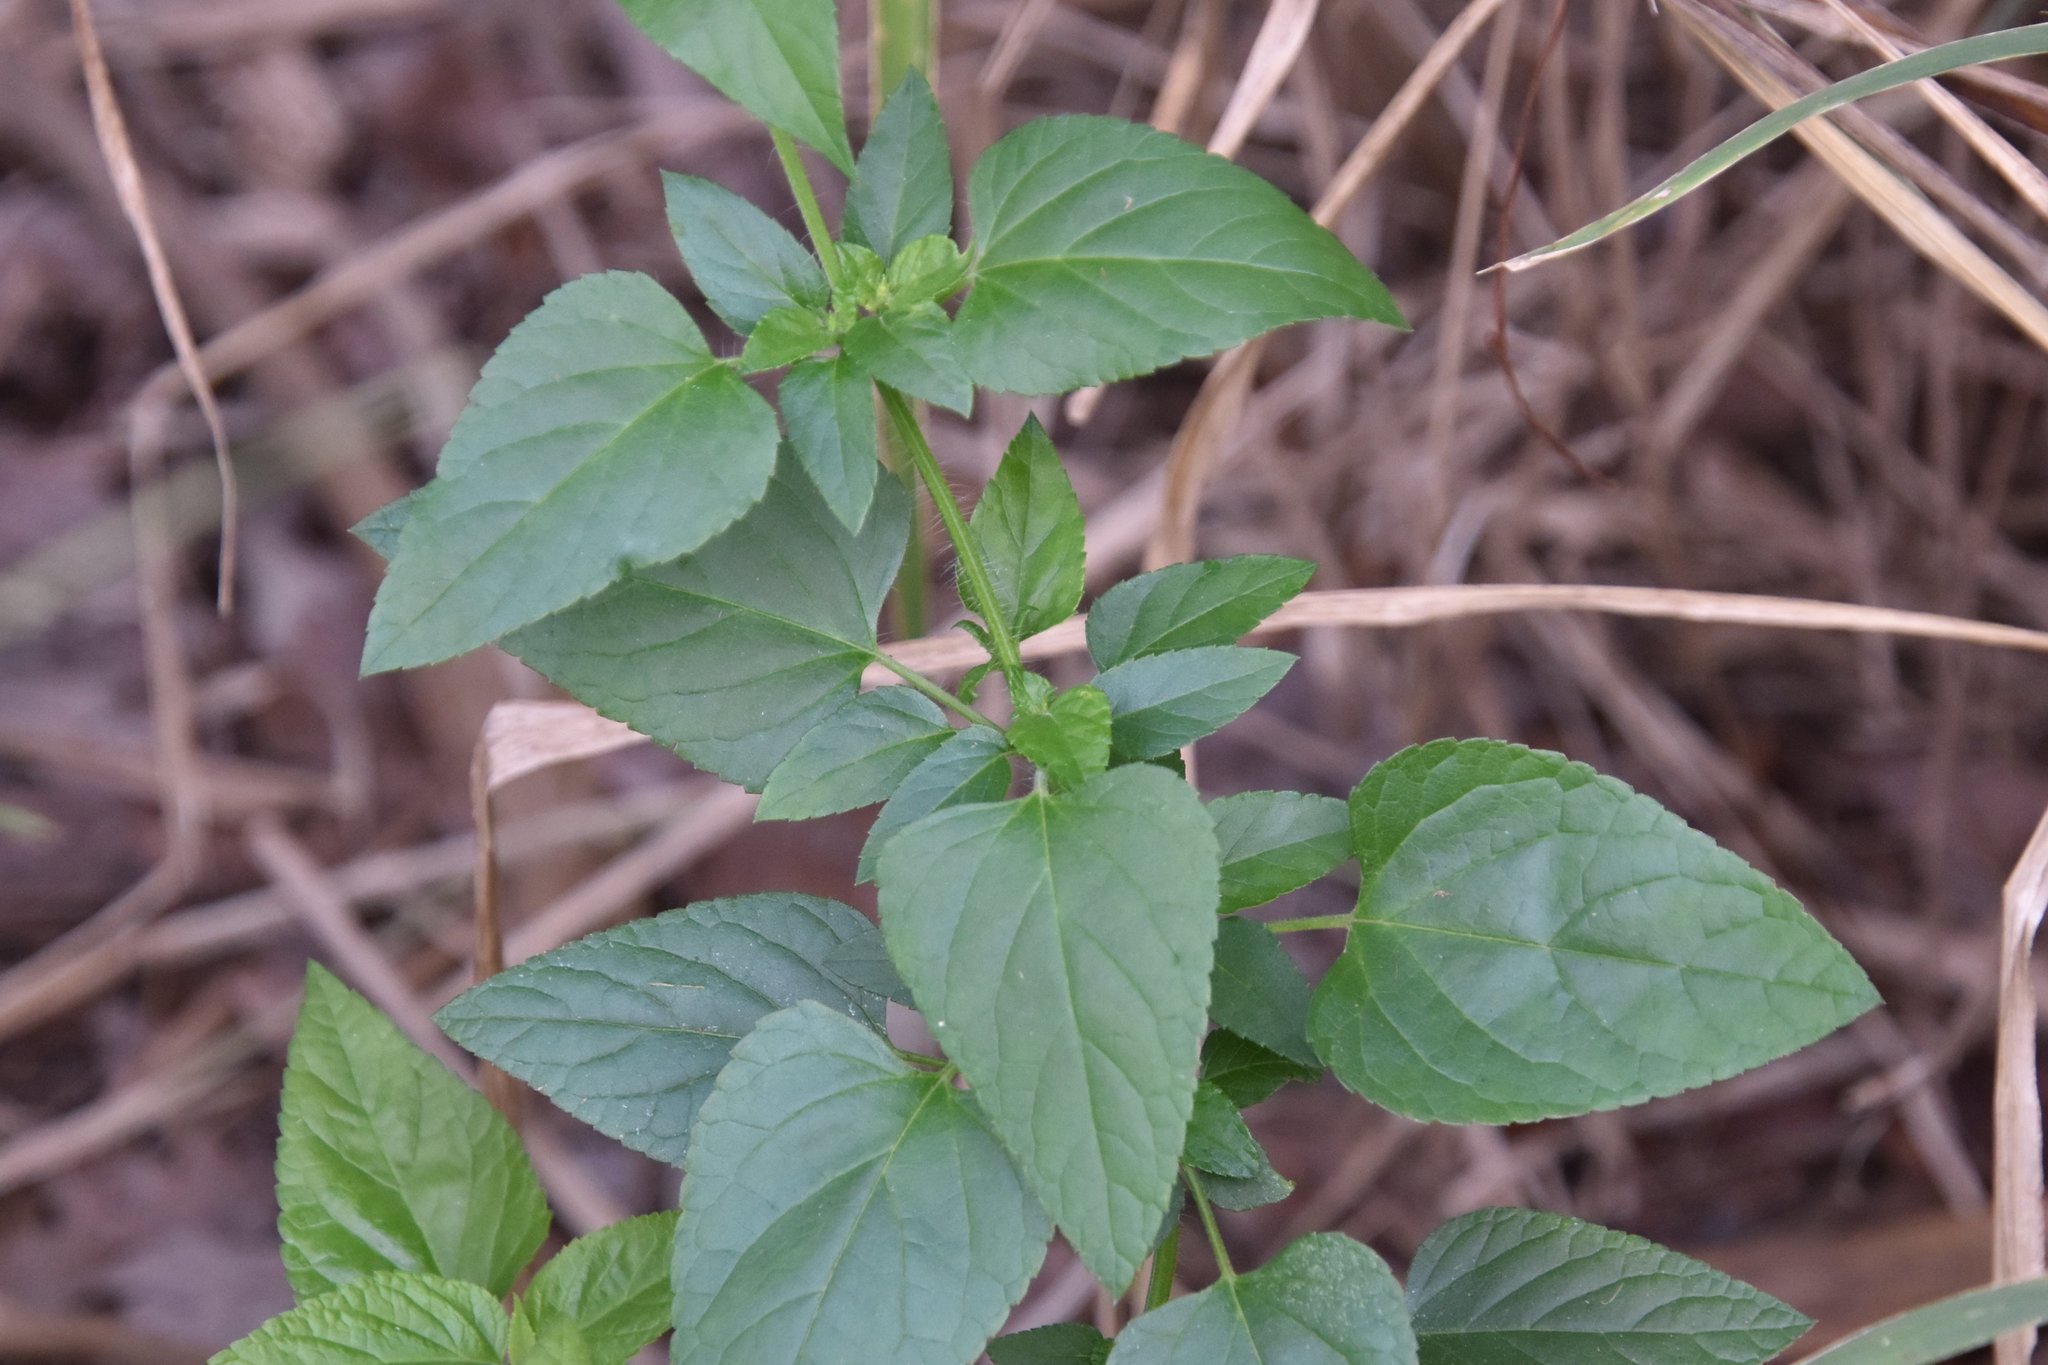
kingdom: Plantae
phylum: Tracheophyta
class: Magnoliopsida
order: Lamiales
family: Lamiaceae
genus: Salvia
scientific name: Salvia coccinea
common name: Blood sage
